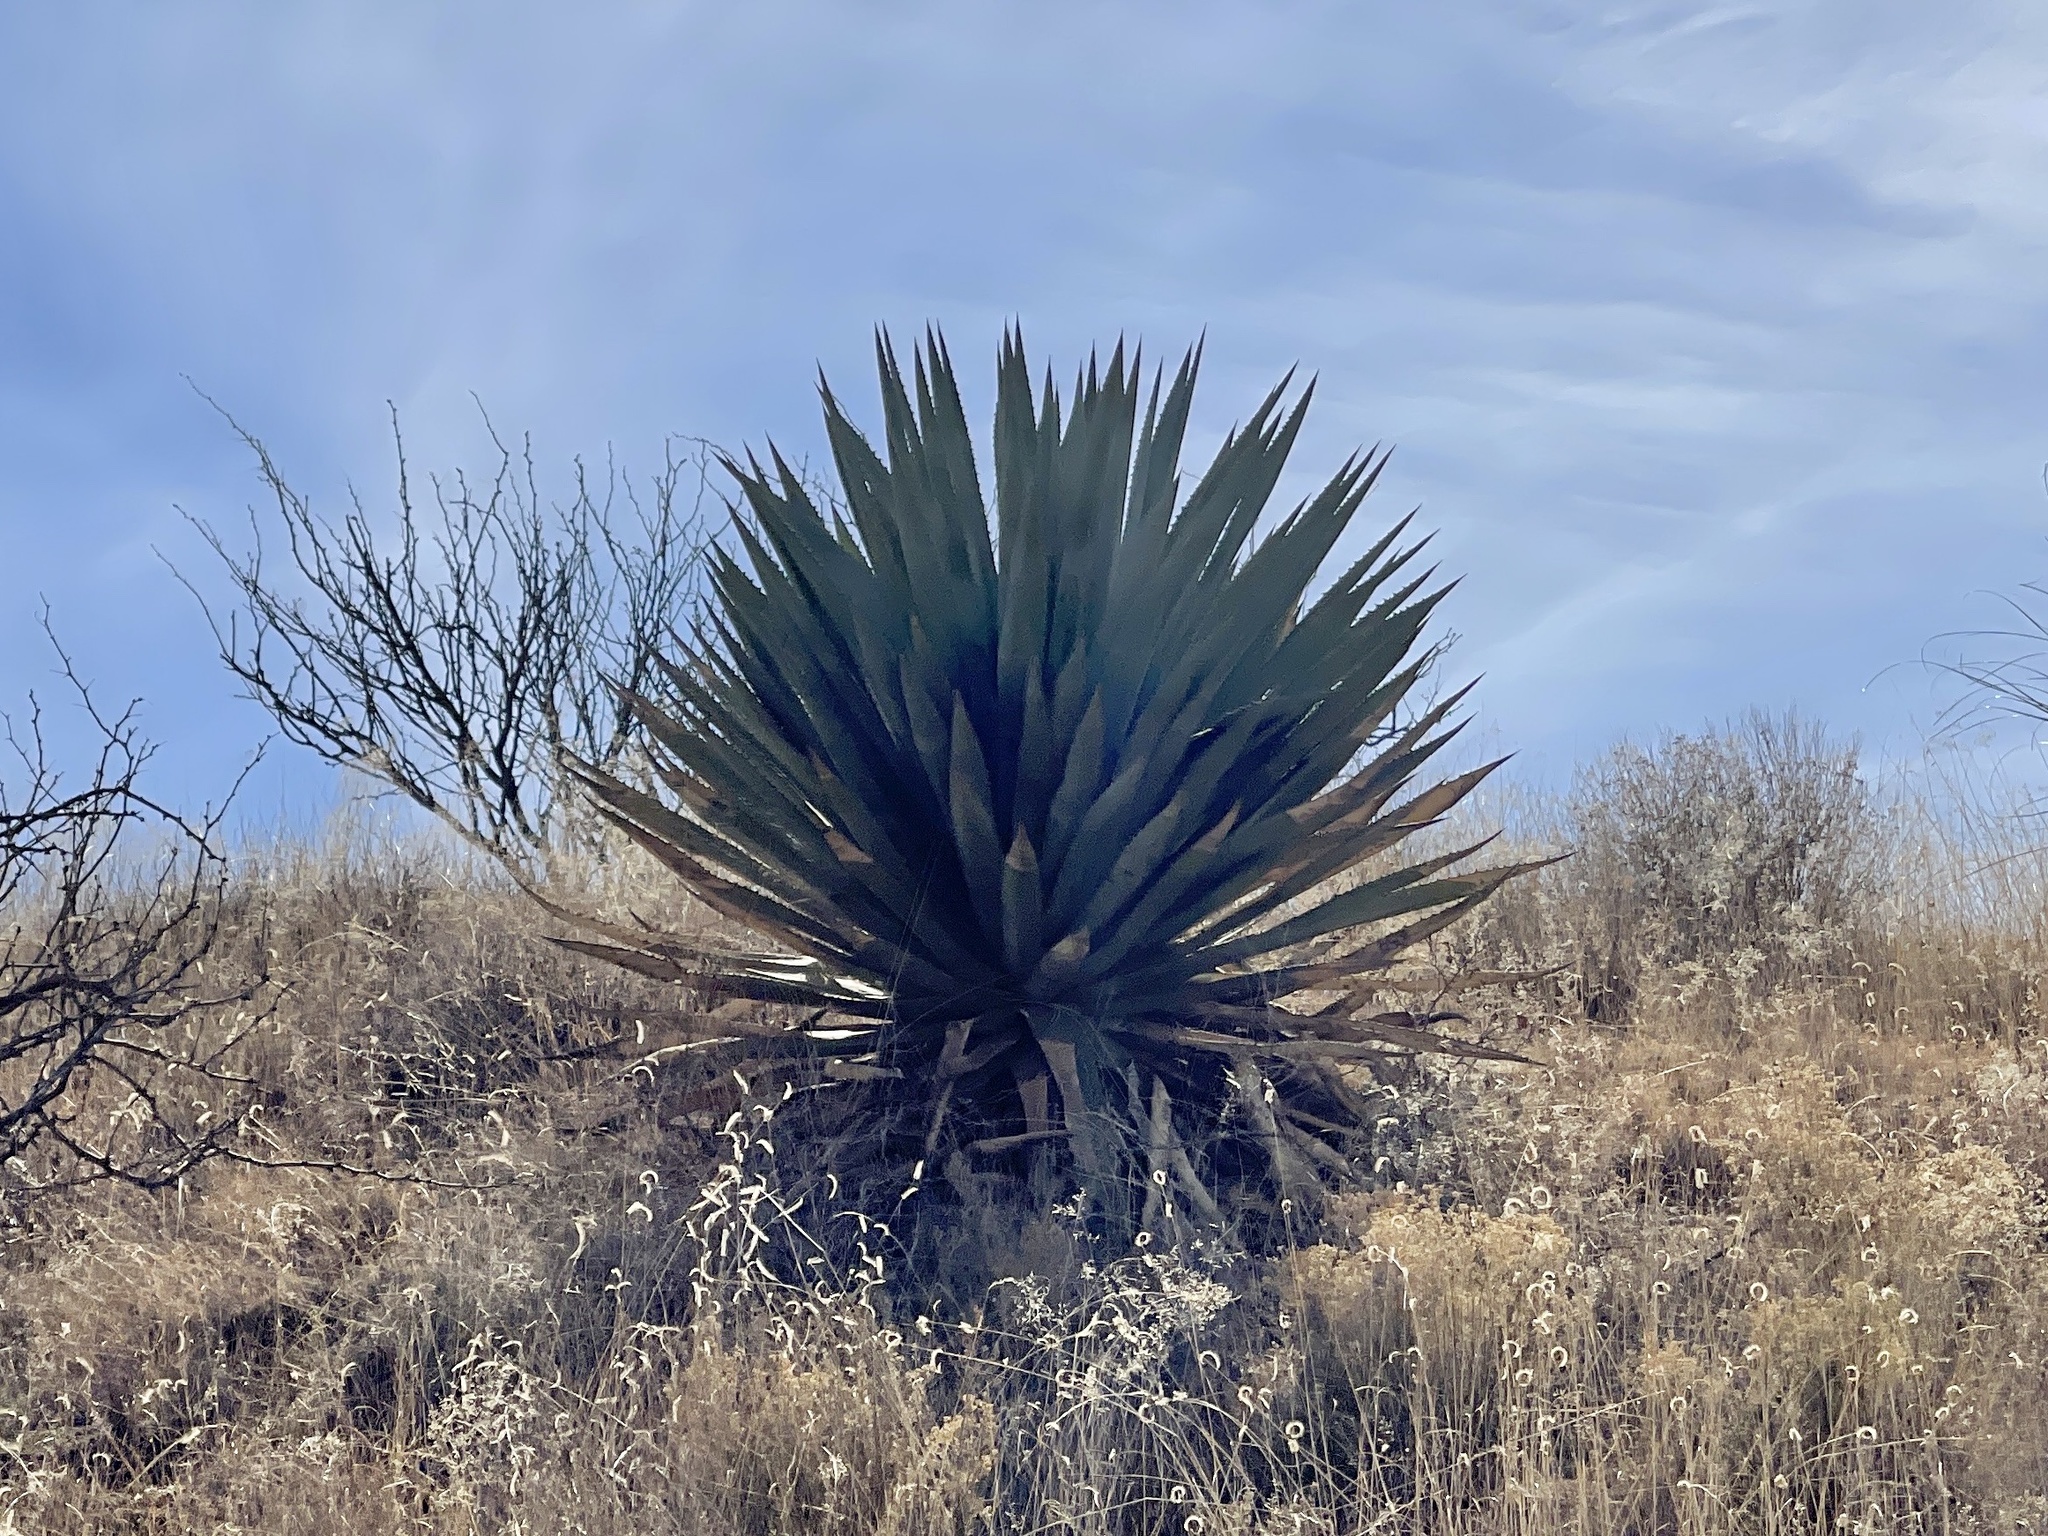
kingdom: Plantae
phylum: Tracheophyta
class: Liliopsida
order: Asparagales
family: Asparagaceae
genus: Agave
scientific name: Agave palmeri
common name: Palmer agave
